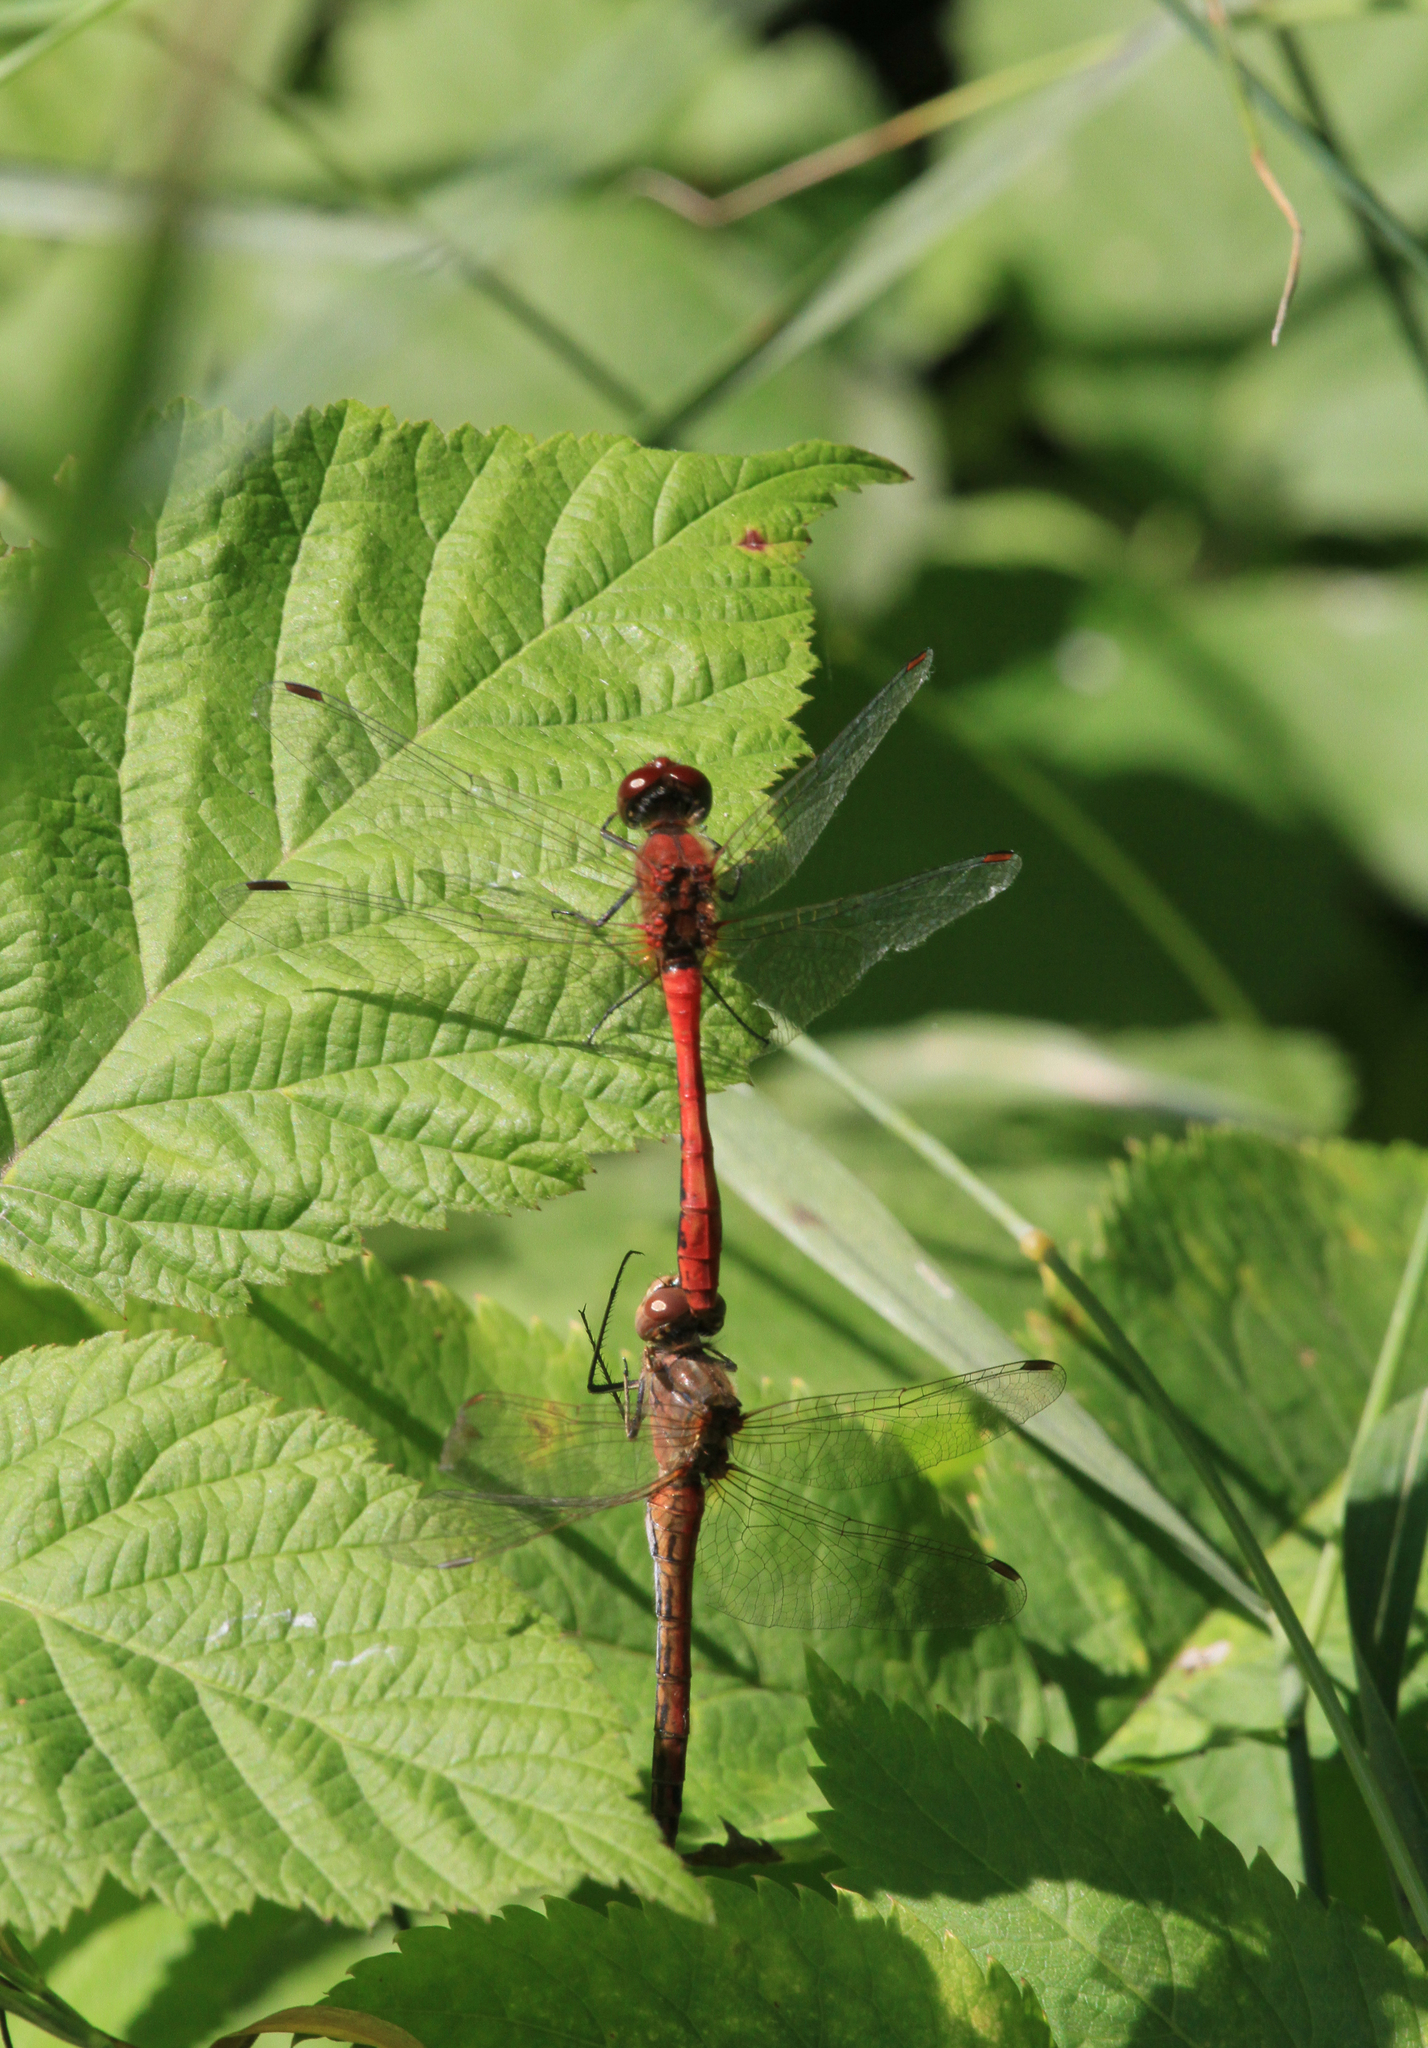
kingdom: Animalia
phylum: Arthropoda
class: Insecta
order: Odonata
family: Libellulidae
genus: Sympetrum
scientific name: Sympetrum sanguineum
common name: Ruddy darter
